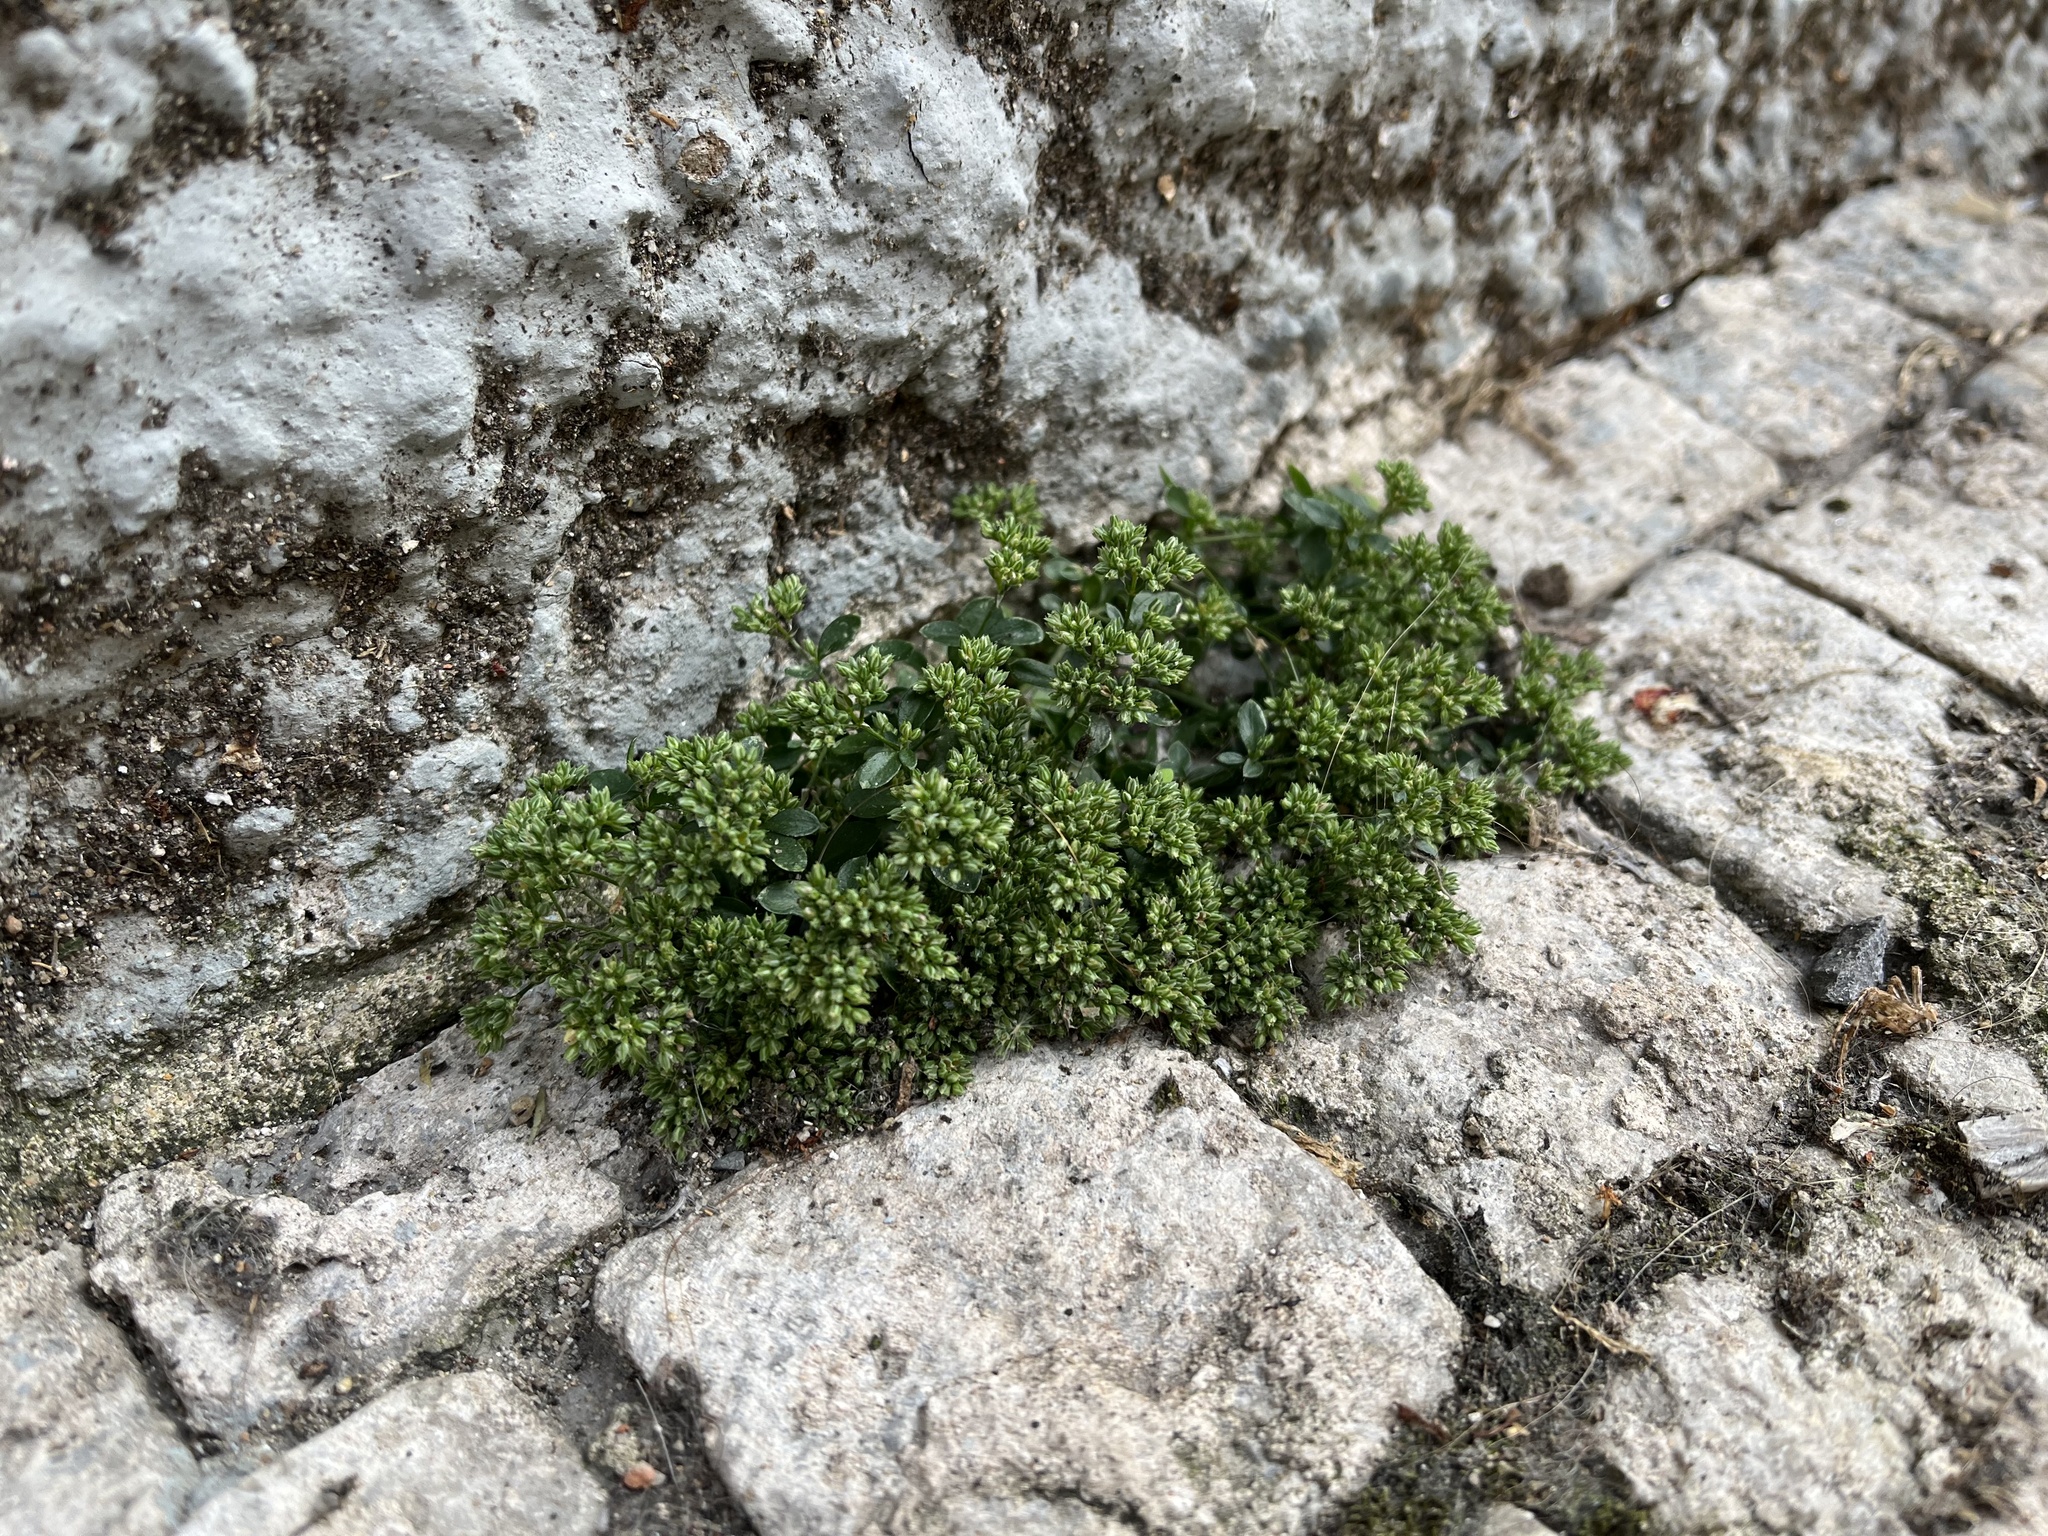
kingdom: Plantae
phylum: Tracheophyta
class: Magnoliopsida
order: Caryophyllales
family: Caryophyllaceae
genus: Polycarpon
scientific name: Polycarpon tetraphyllum
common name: Four-leaved all-seed
